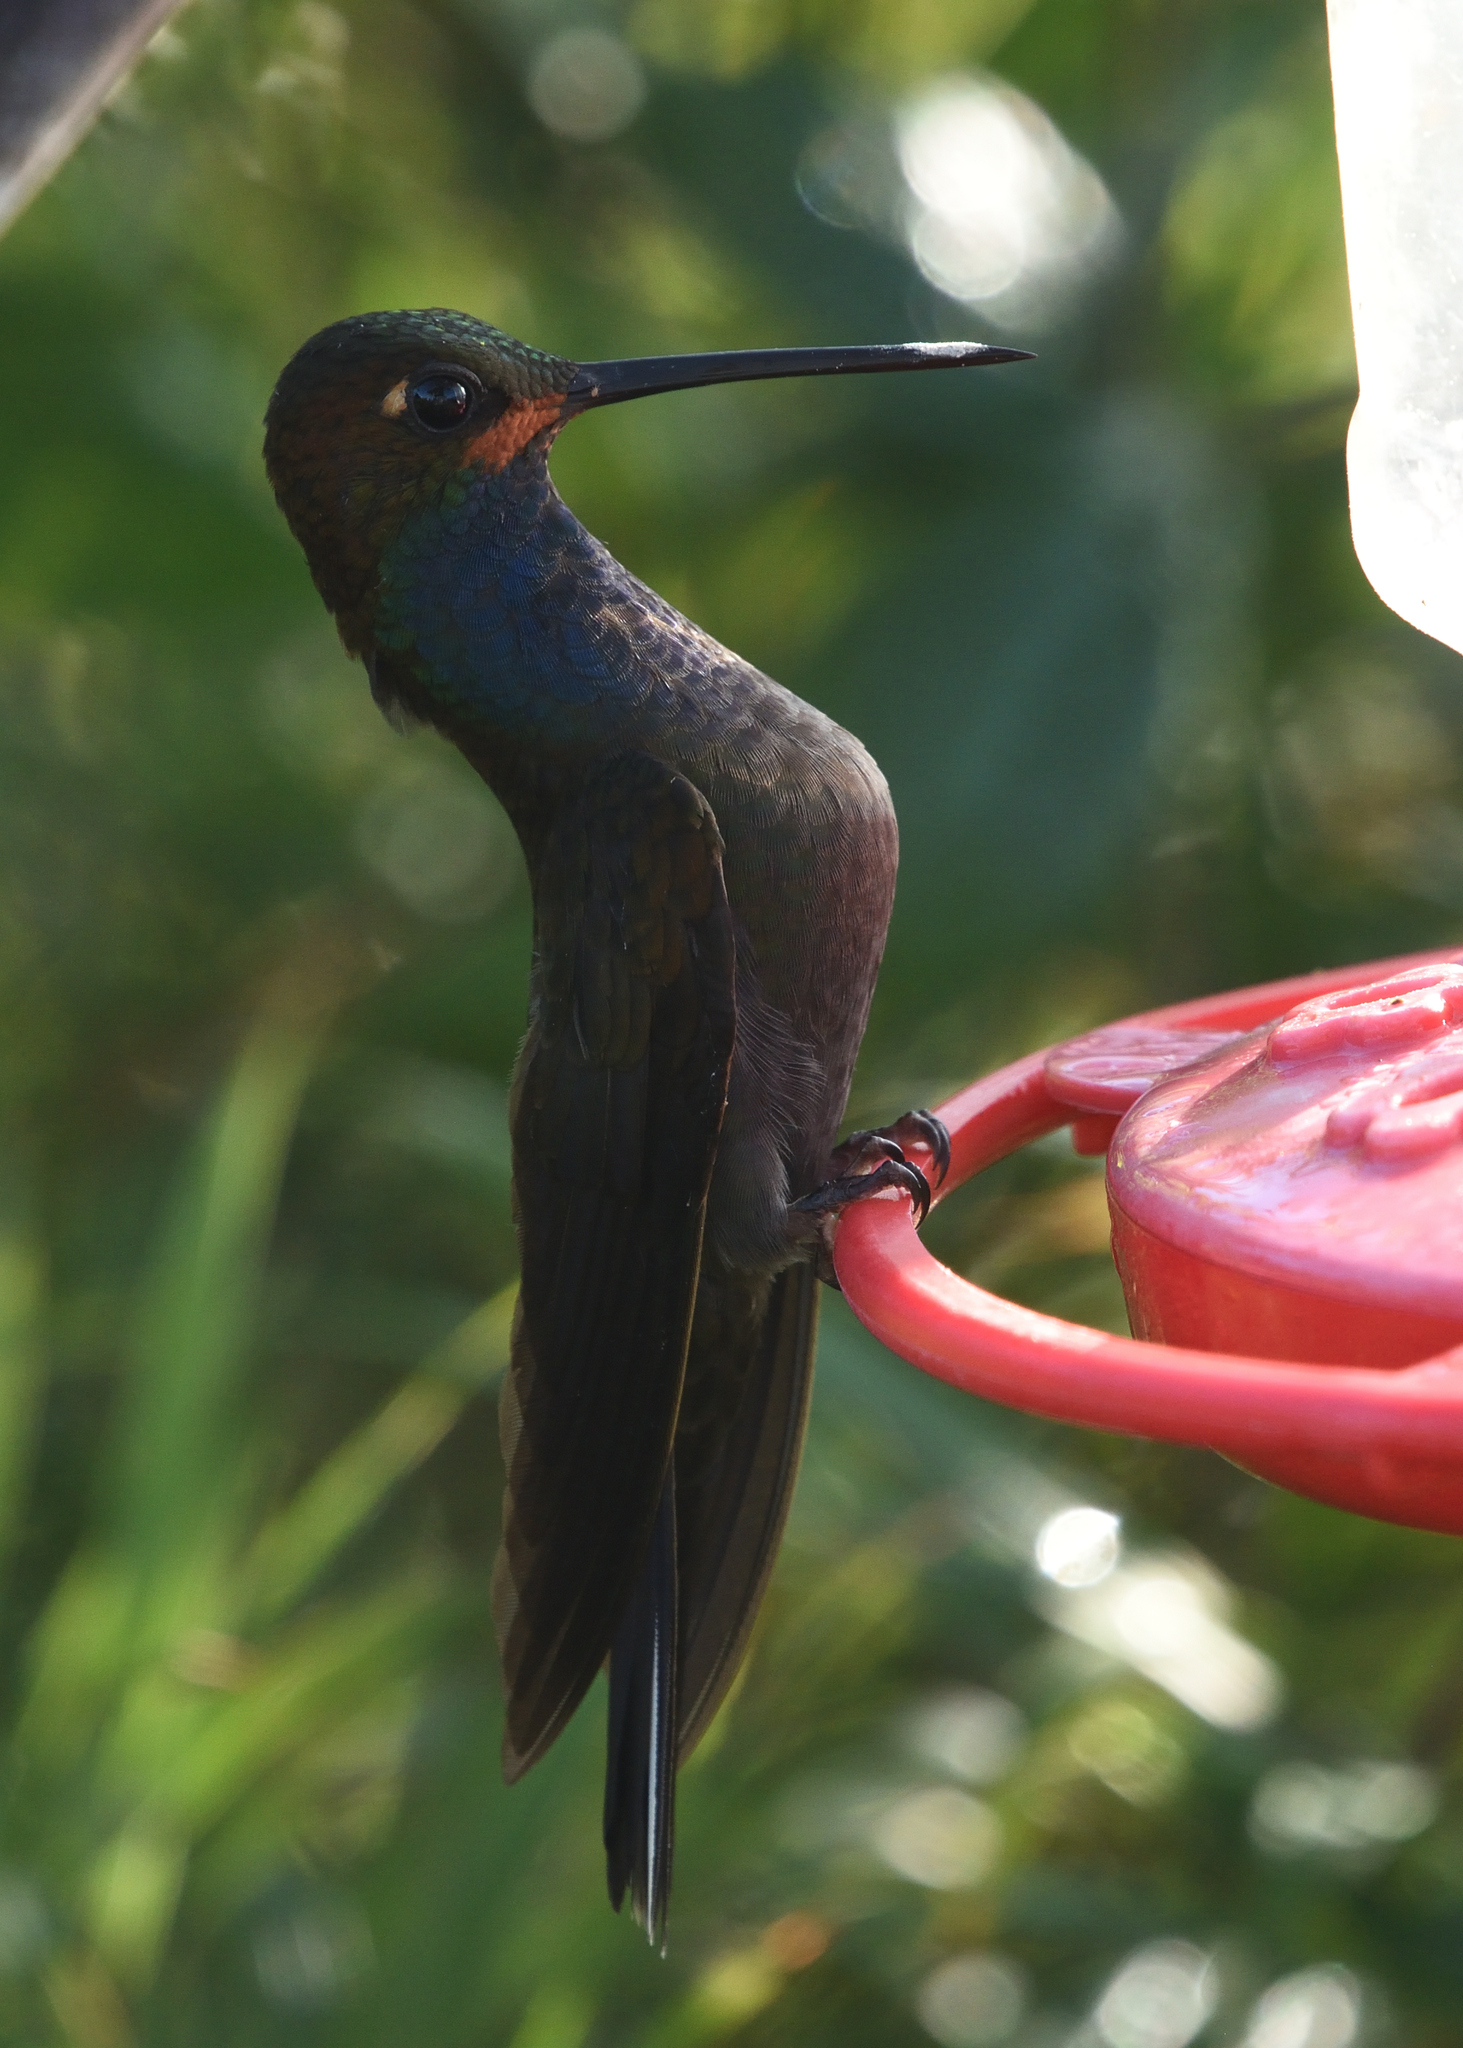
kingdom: Animalia
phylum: Chordata
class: Aves
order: Apodiformes
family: Trochilidae
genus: Urochroa
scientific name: Urochroa bougueri
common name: White-tailed hillstar
